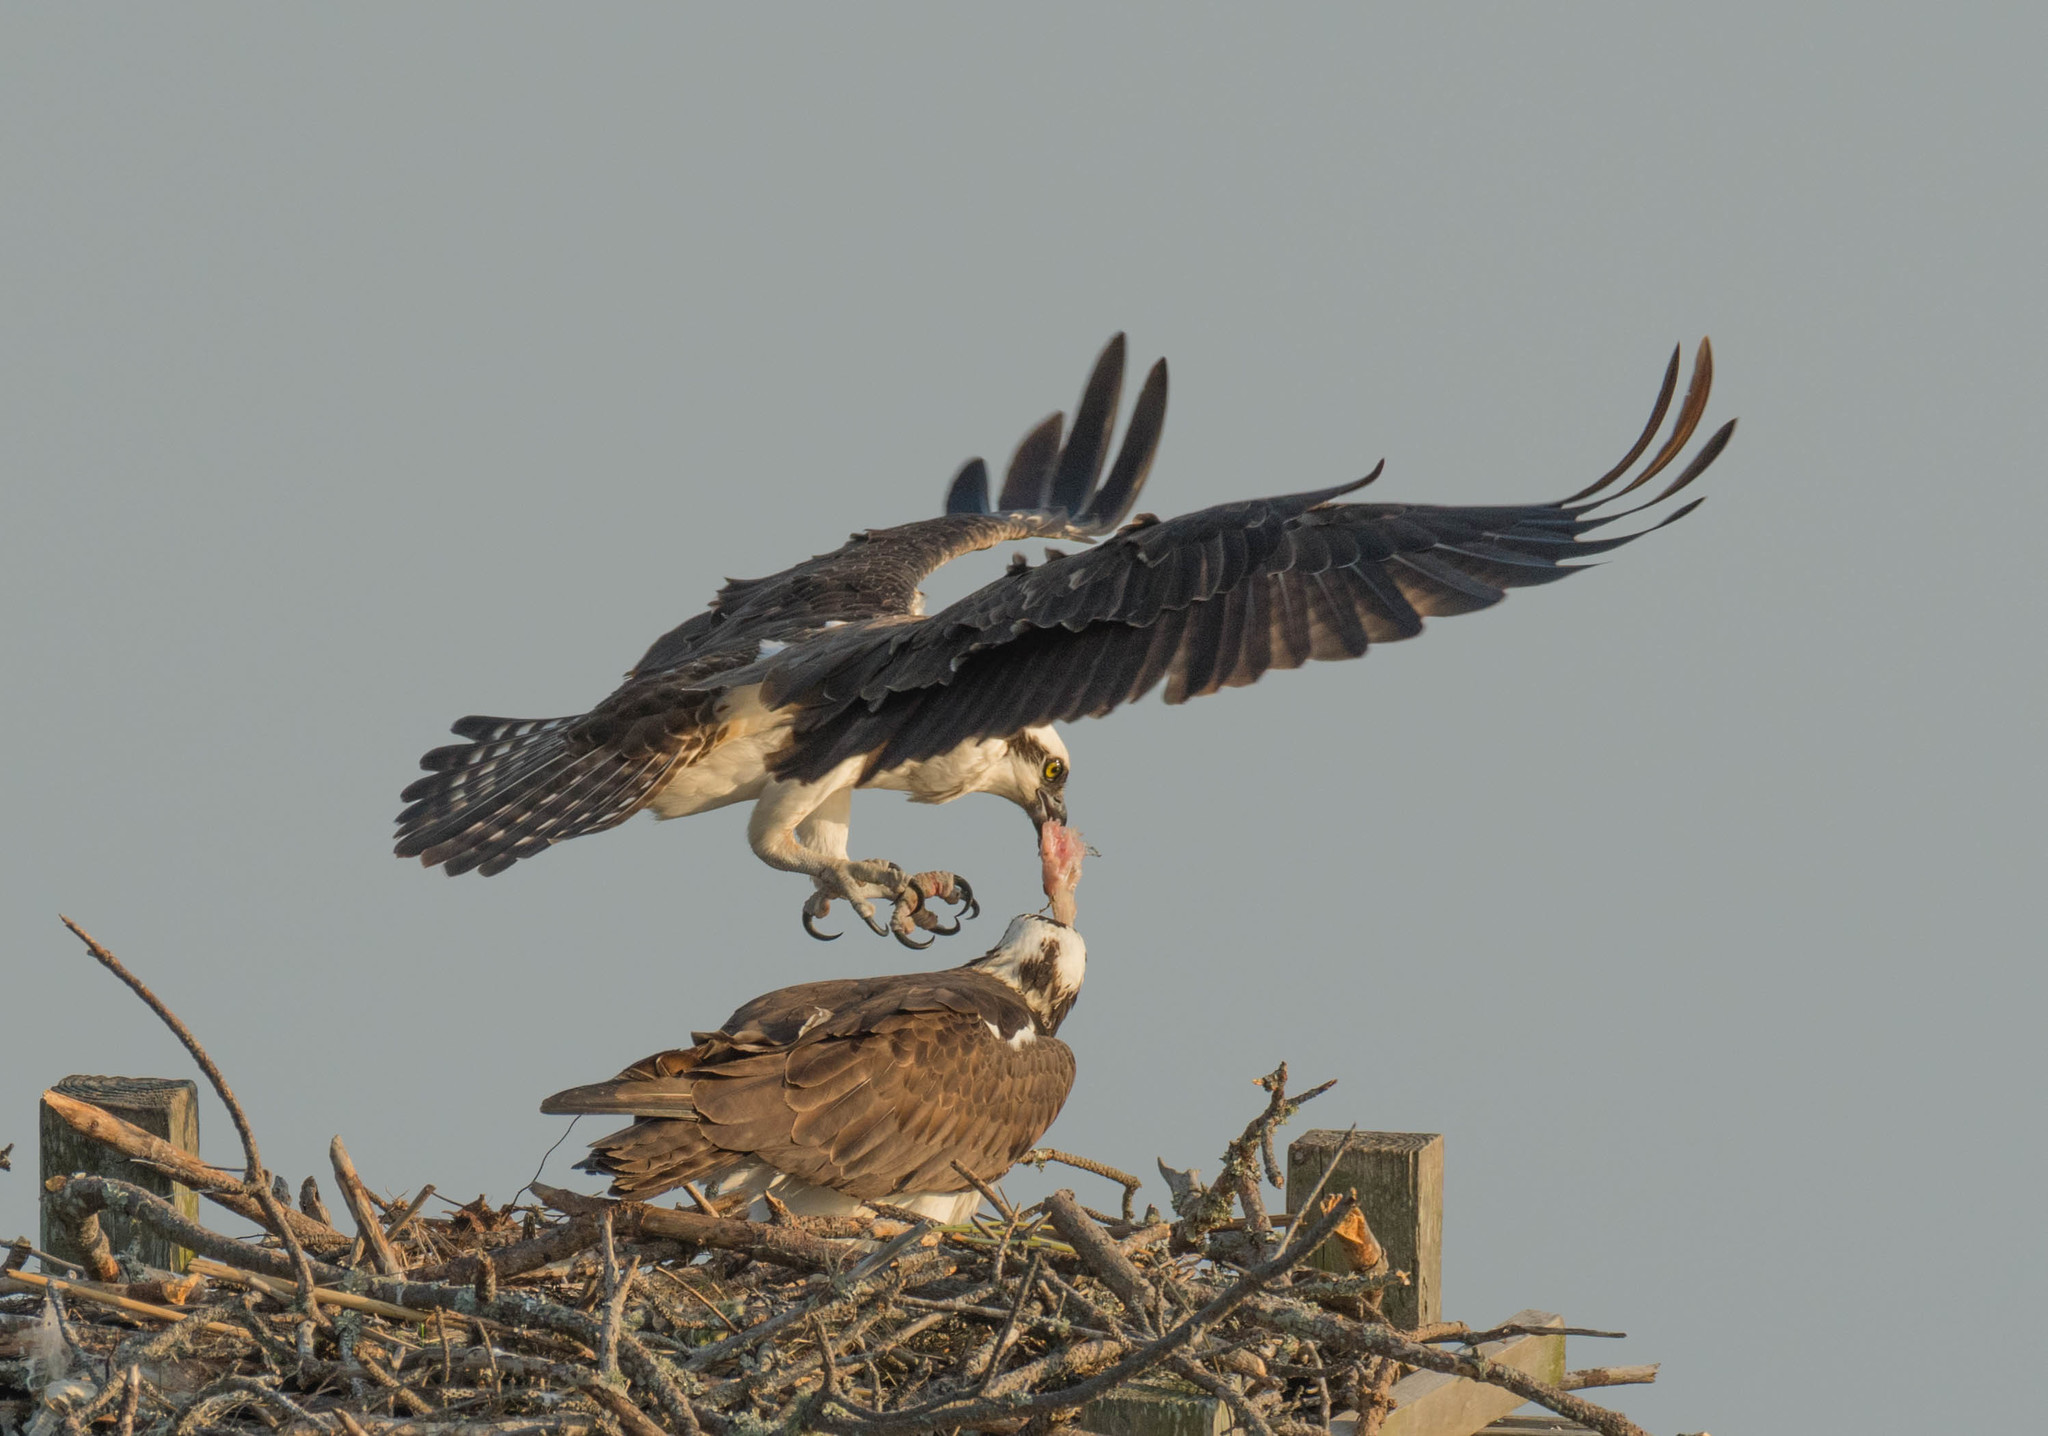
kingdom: Animalia
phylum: Chordata
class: Aves
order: Accipitriformes
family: Pandionidae
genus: Pandion
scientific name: Pandion haliaetus
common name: Osprey
